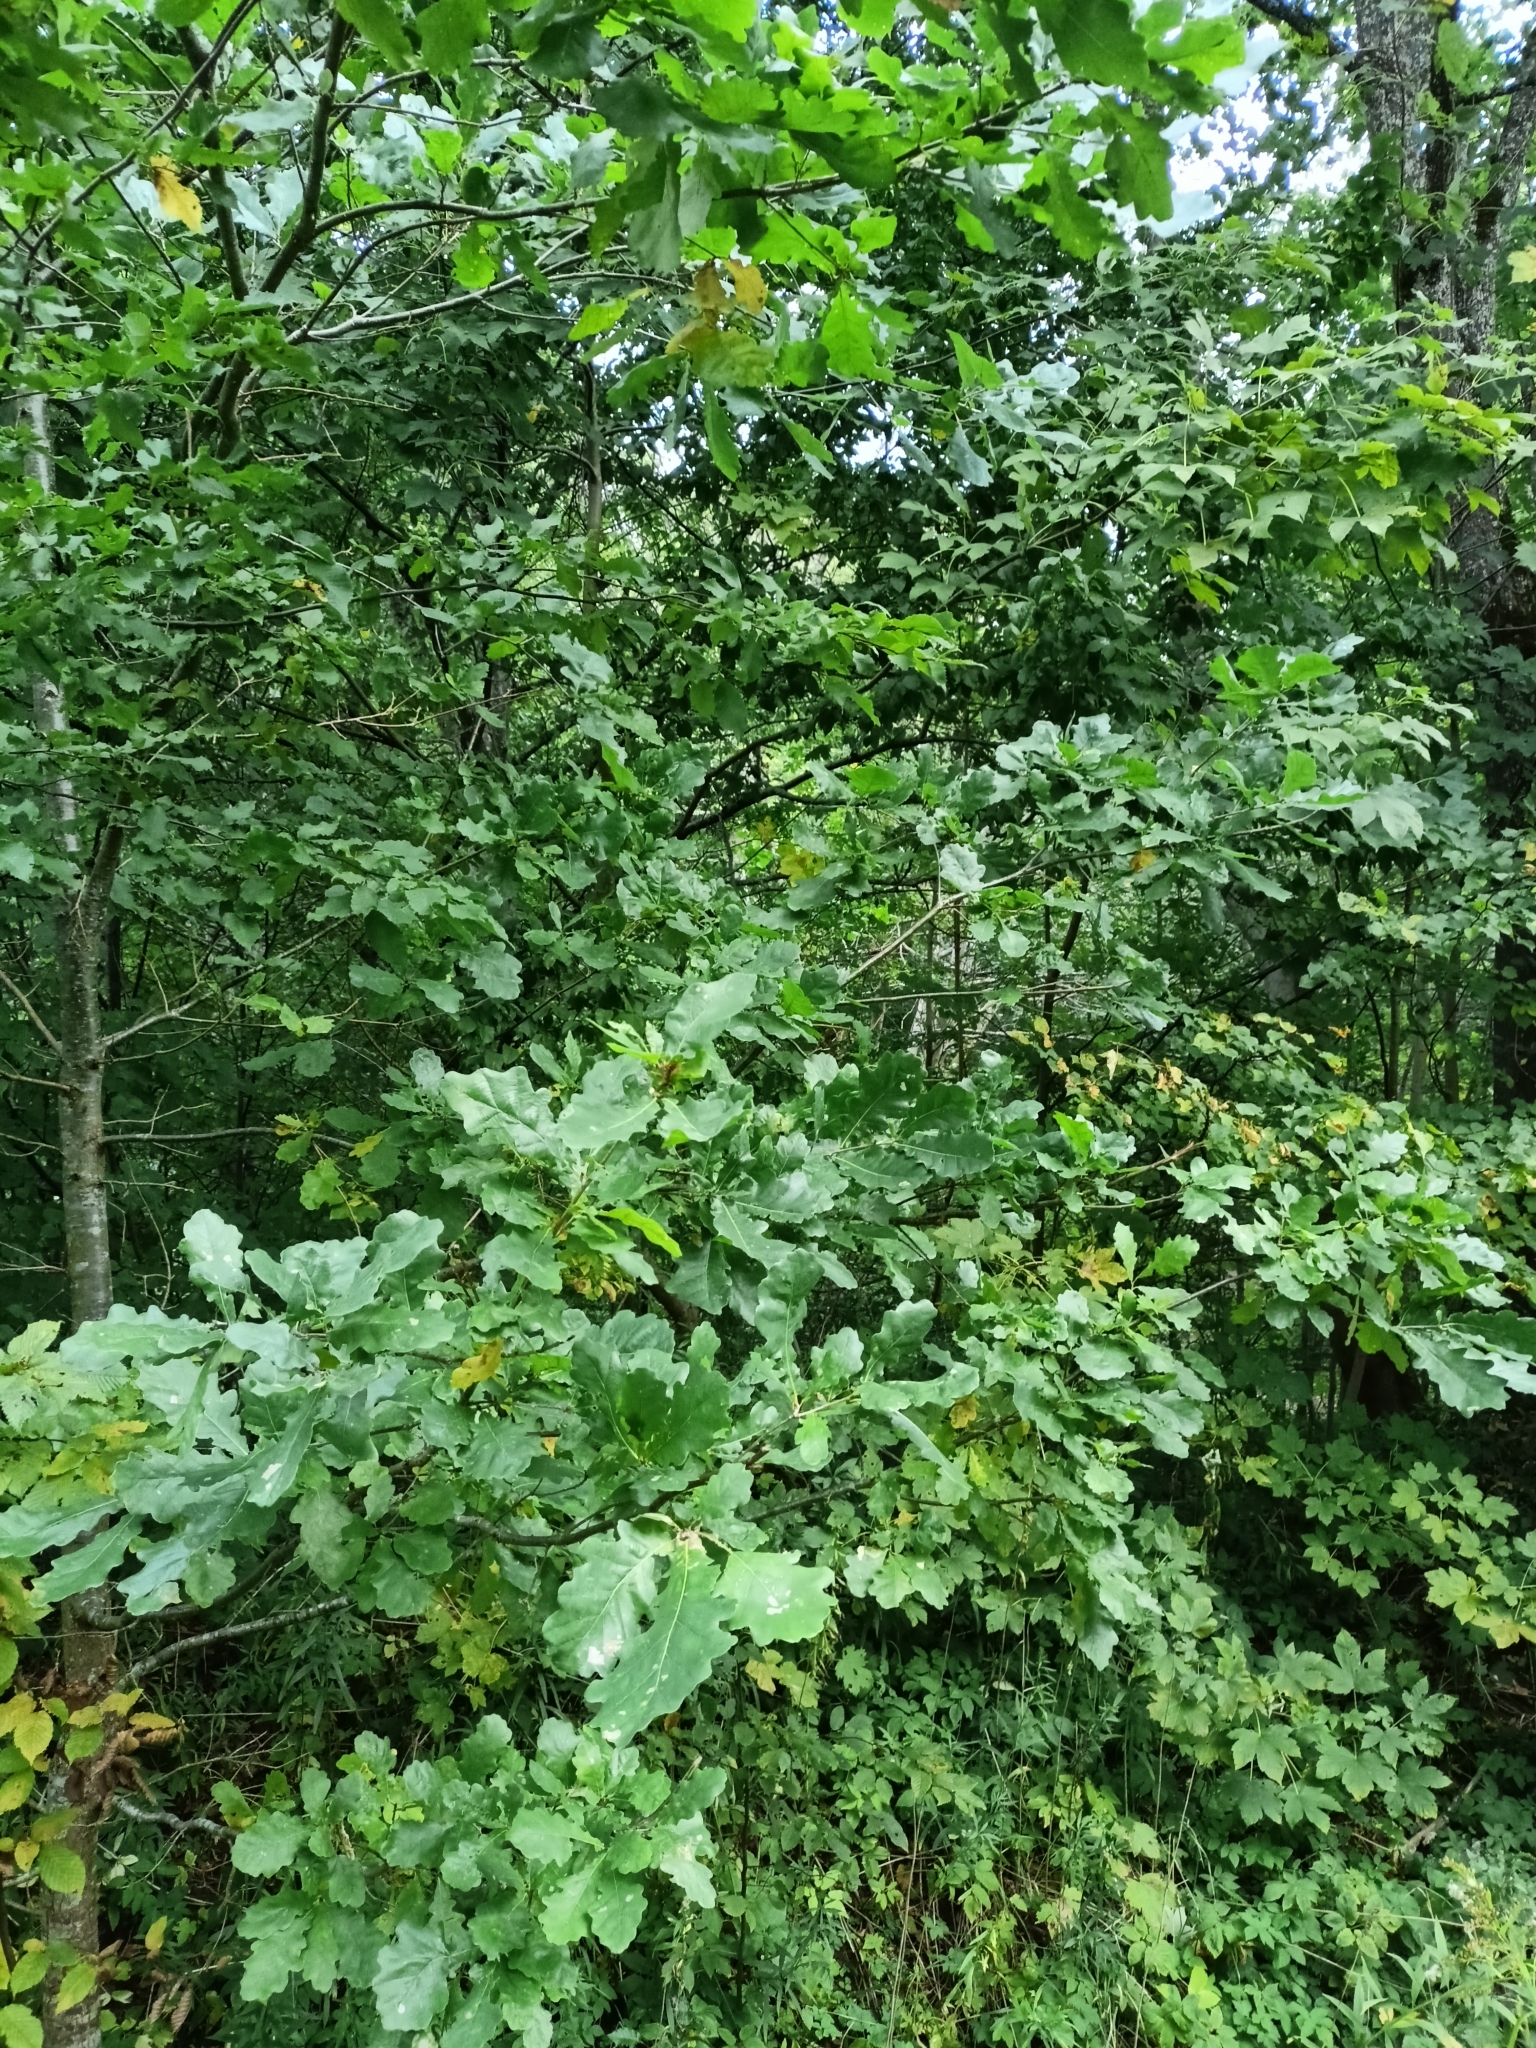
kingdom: Plantae
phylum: Tracheophyta
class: Magnoliopsida
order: Fagales
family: Fagaceae
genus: Quercus
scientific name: Quercus robur
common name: Pedunculate oak
